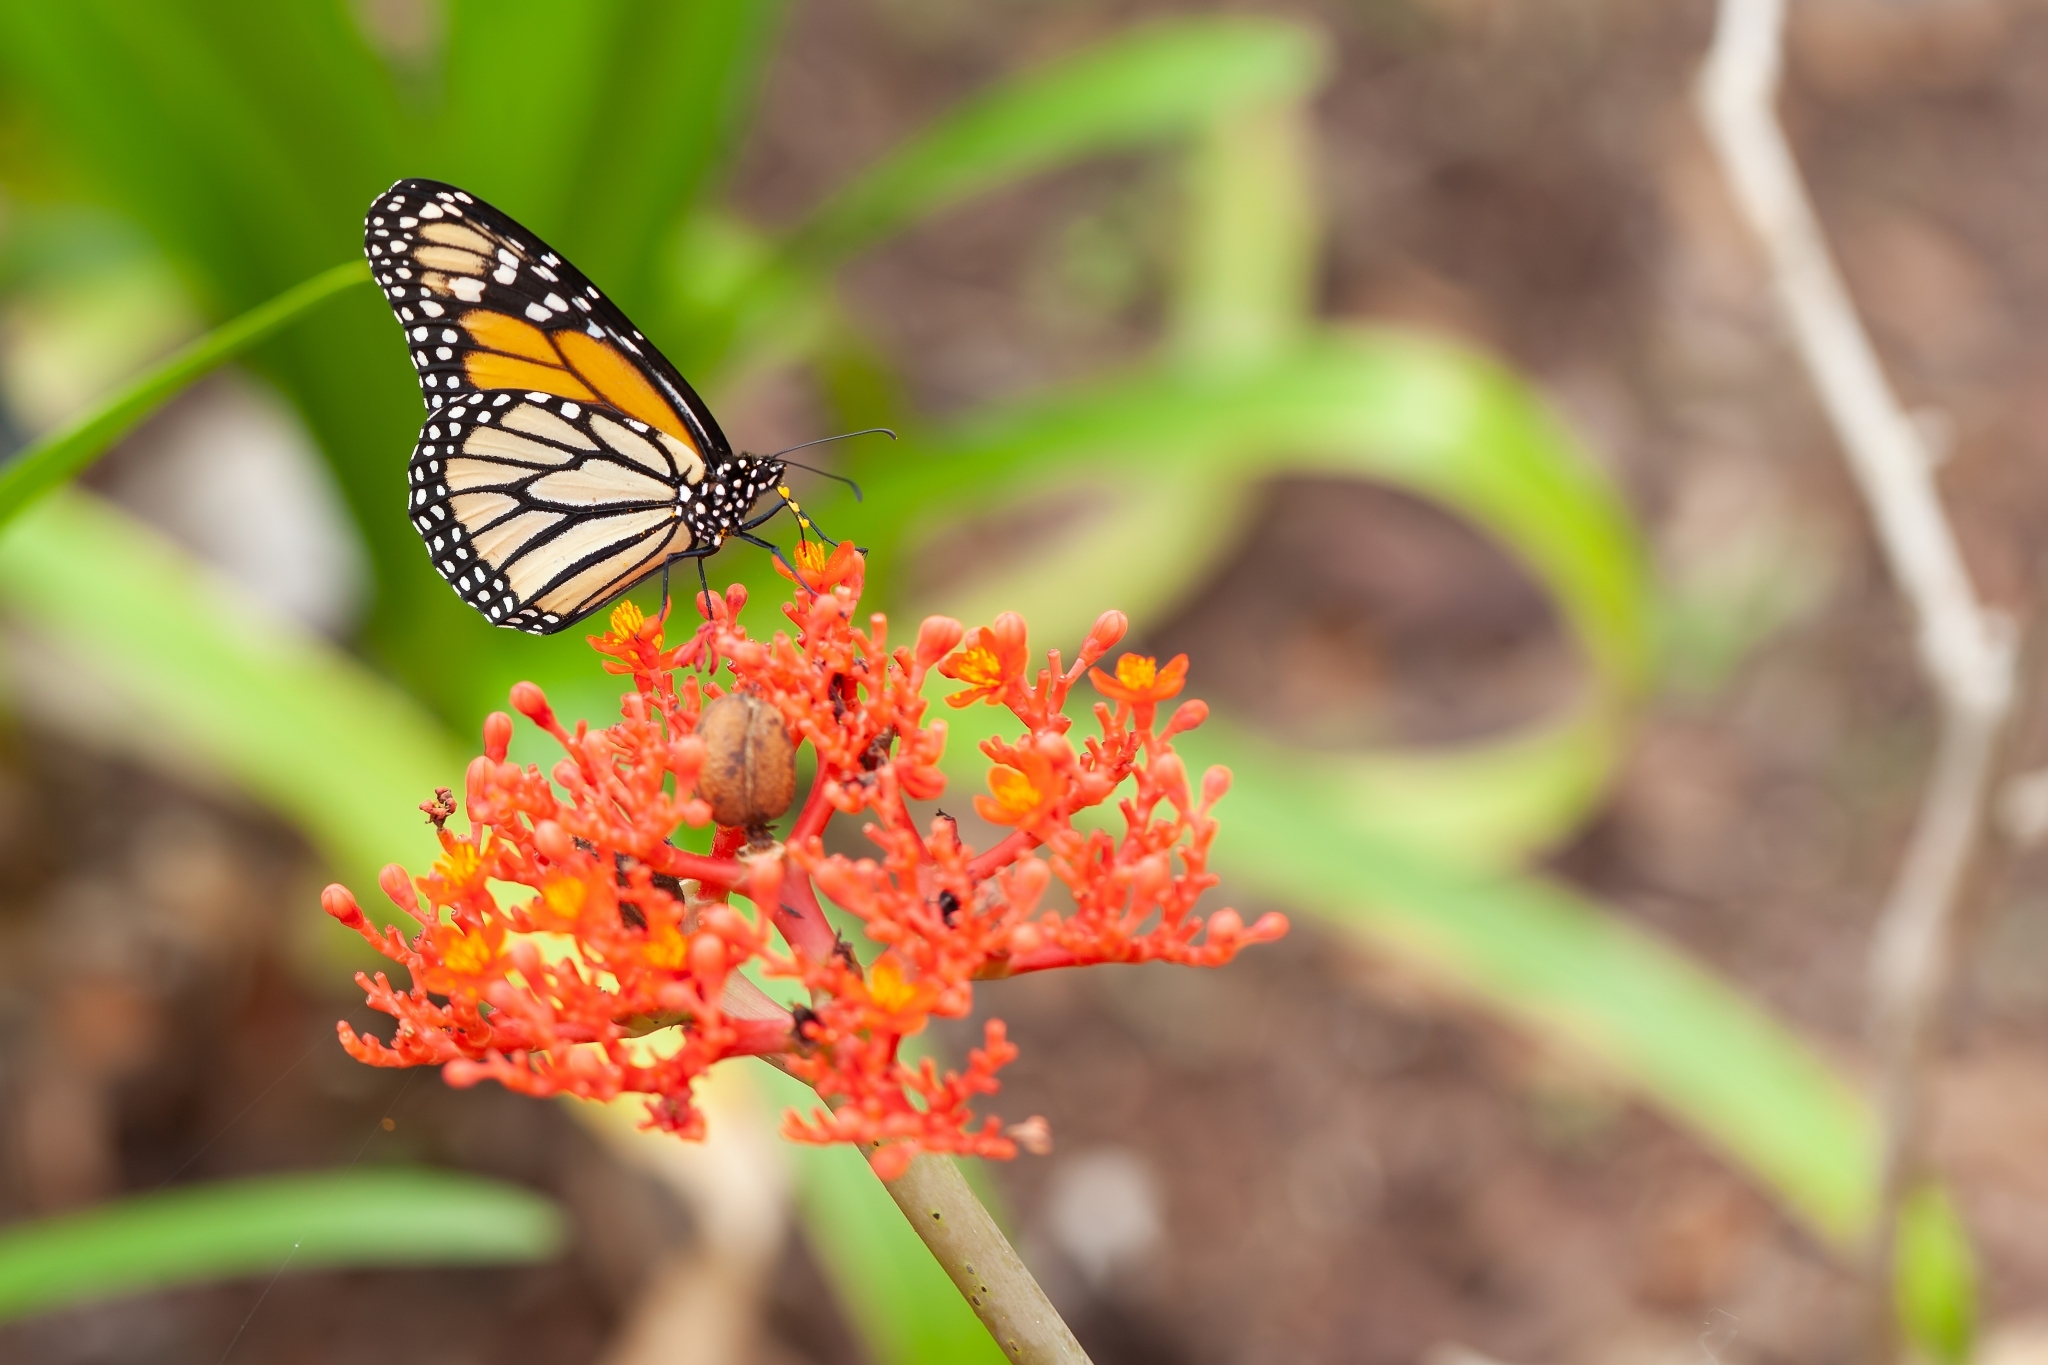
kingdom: Animalia
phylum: Arthropoda
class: Insecta
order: Lepidoptera
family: Nymphalidae
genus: Danaus
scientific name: Danaus plexippus
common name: Monarch
